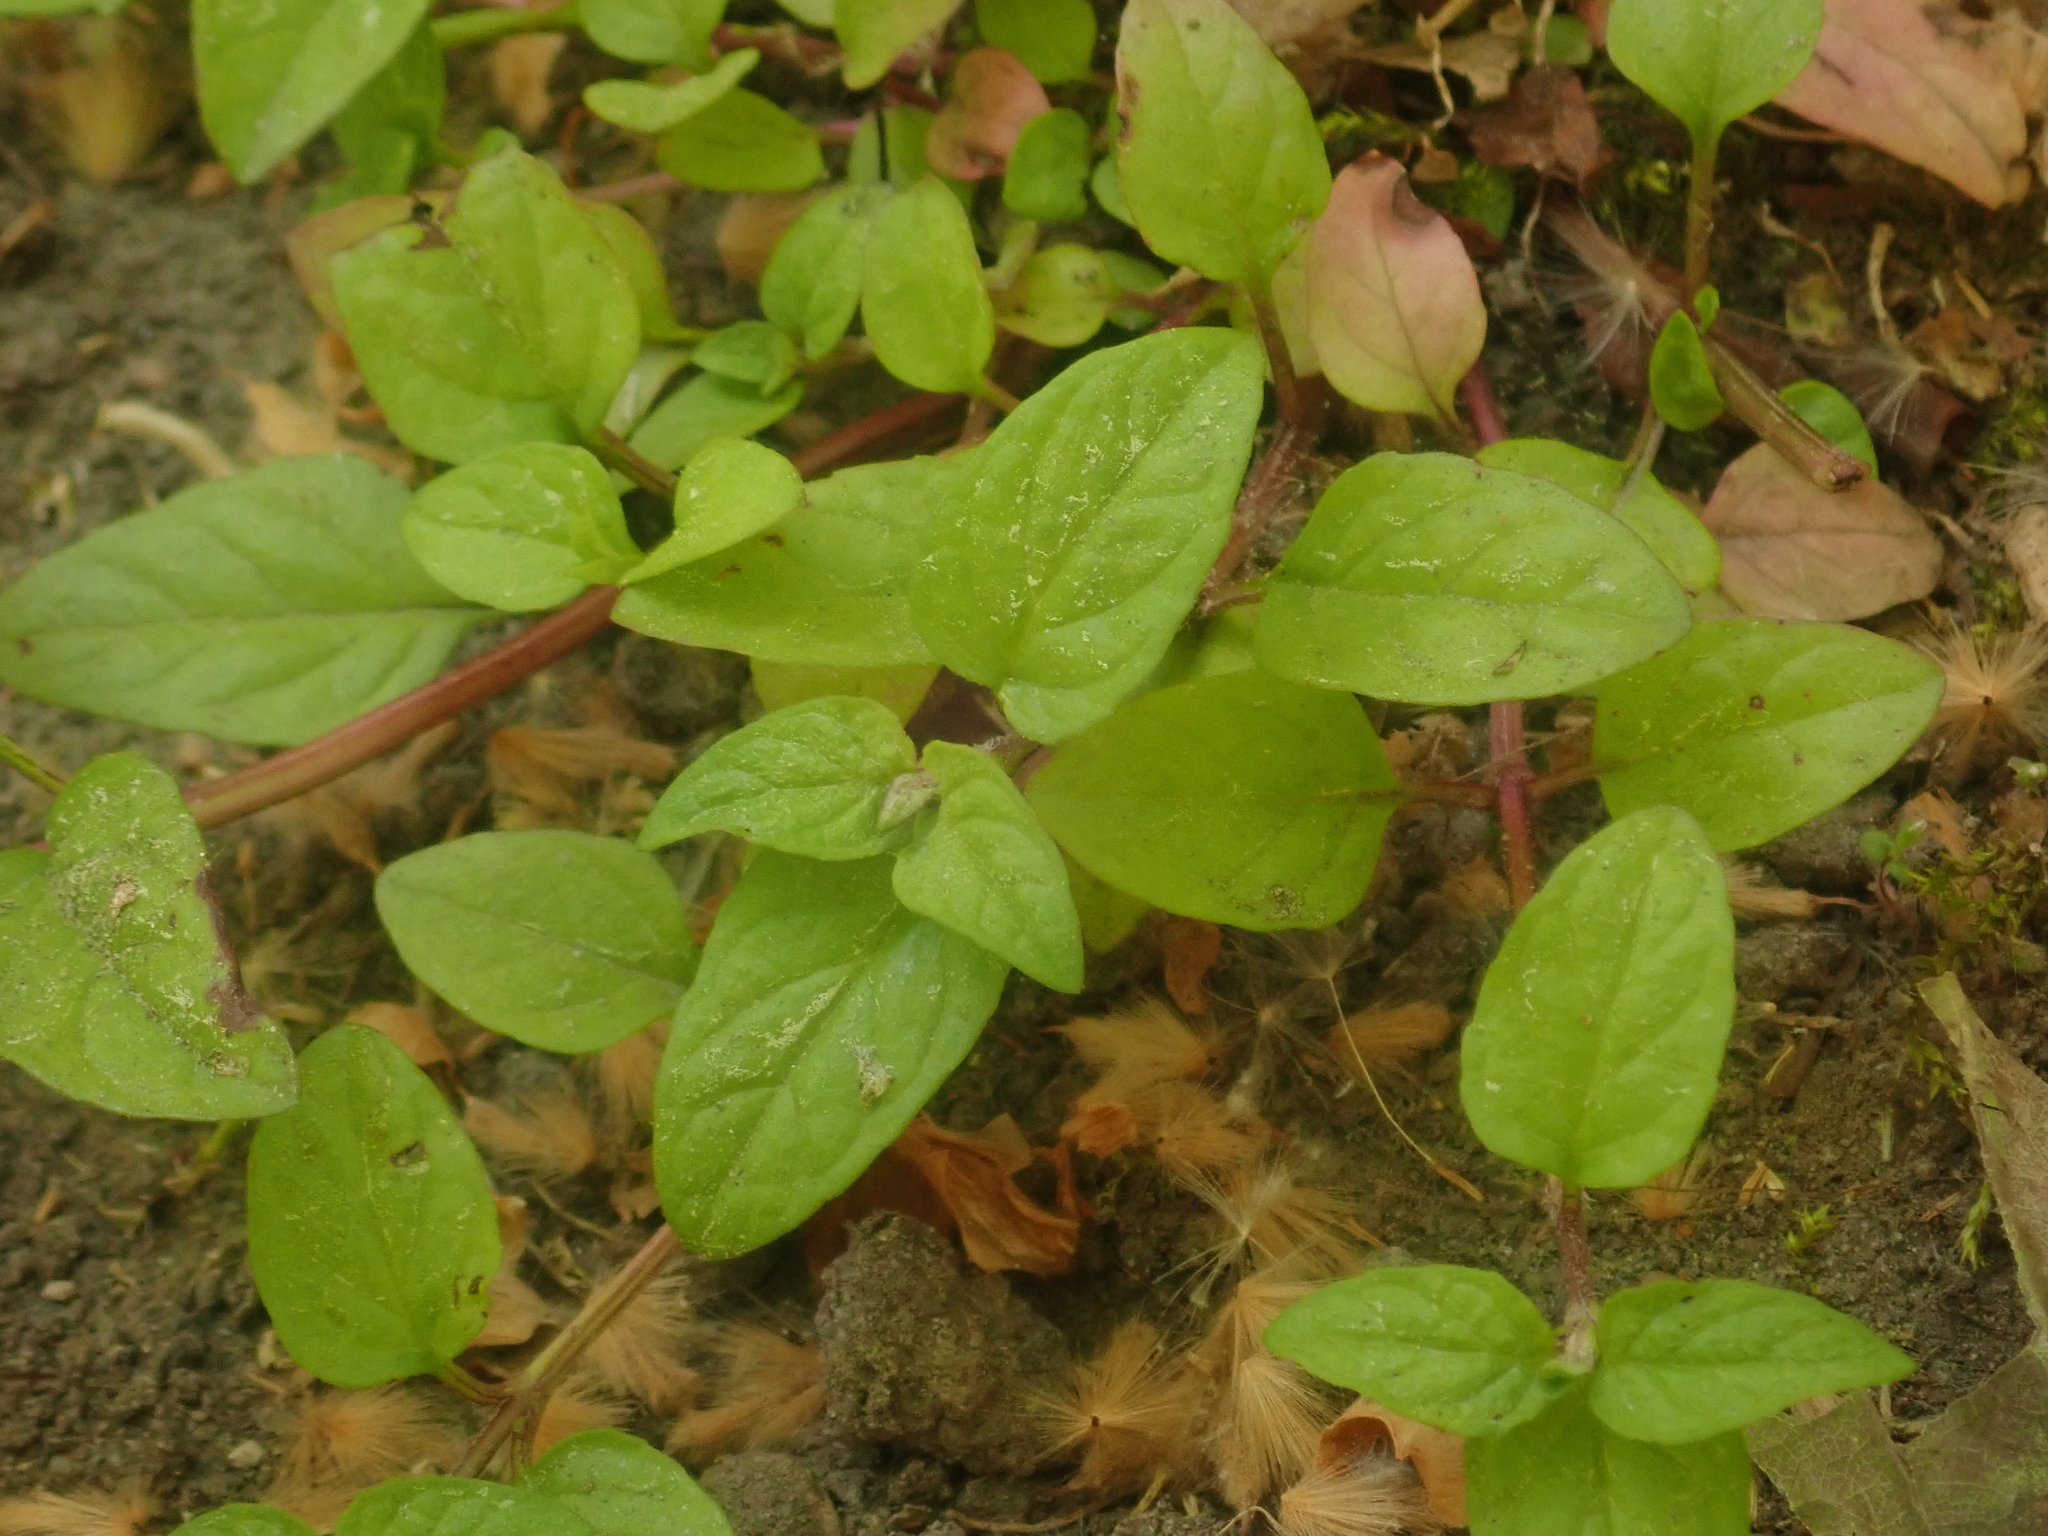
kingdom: Plantae
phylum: Tracheophyta
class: Magnoliopsida
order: Lamiales
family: Lamiaceae
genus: Prunella
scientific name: Prunella vulgaris
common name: Heal-all
